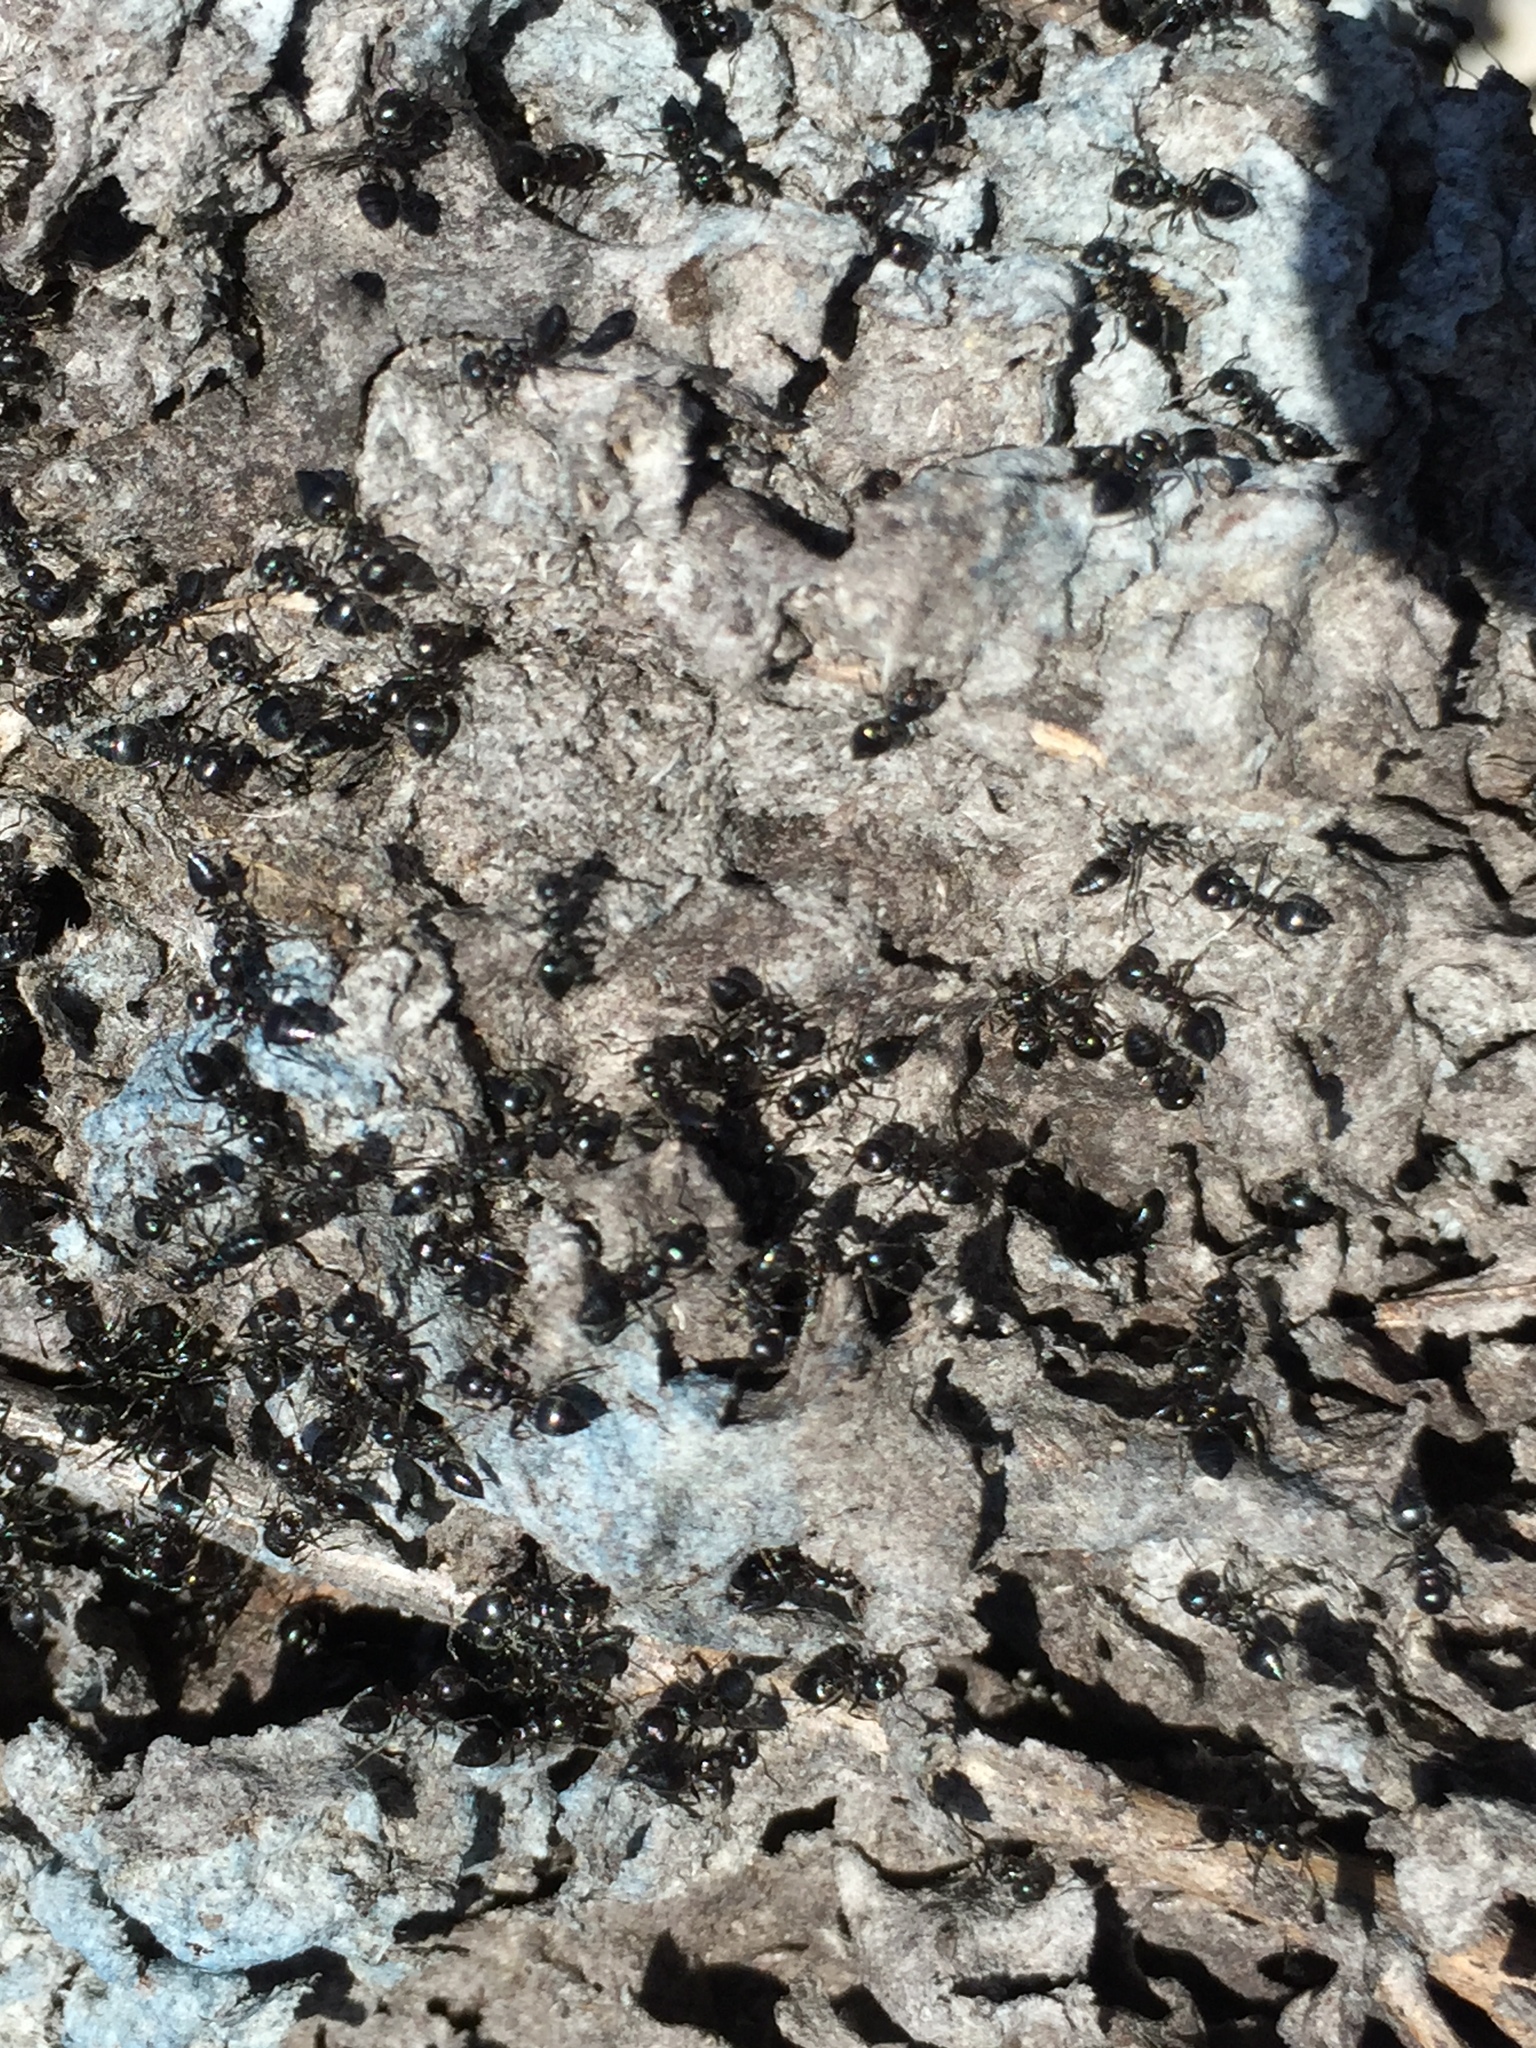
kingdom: Animalia
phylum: Arthropoda
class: Insecta
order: Hymenoptera
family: Formicidae
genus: Crematogaster
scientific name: Crematogaster peringueyi
